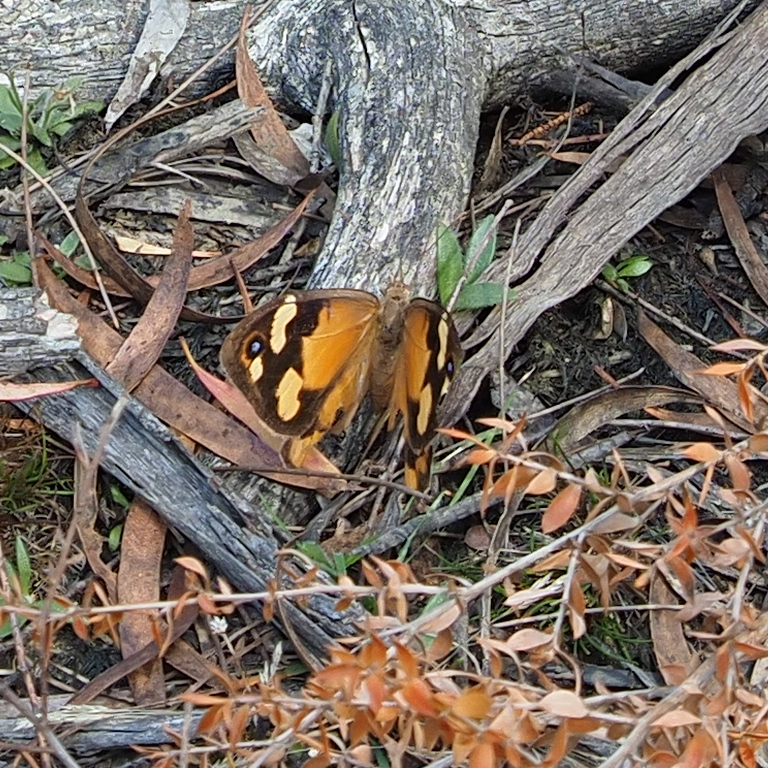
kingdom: Animalia
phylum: Arthropoda
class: Insecta
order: Lepidoptera
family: Nymphalidae
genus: Heteronympha
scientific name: Heteronympha merope
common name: Common brown
